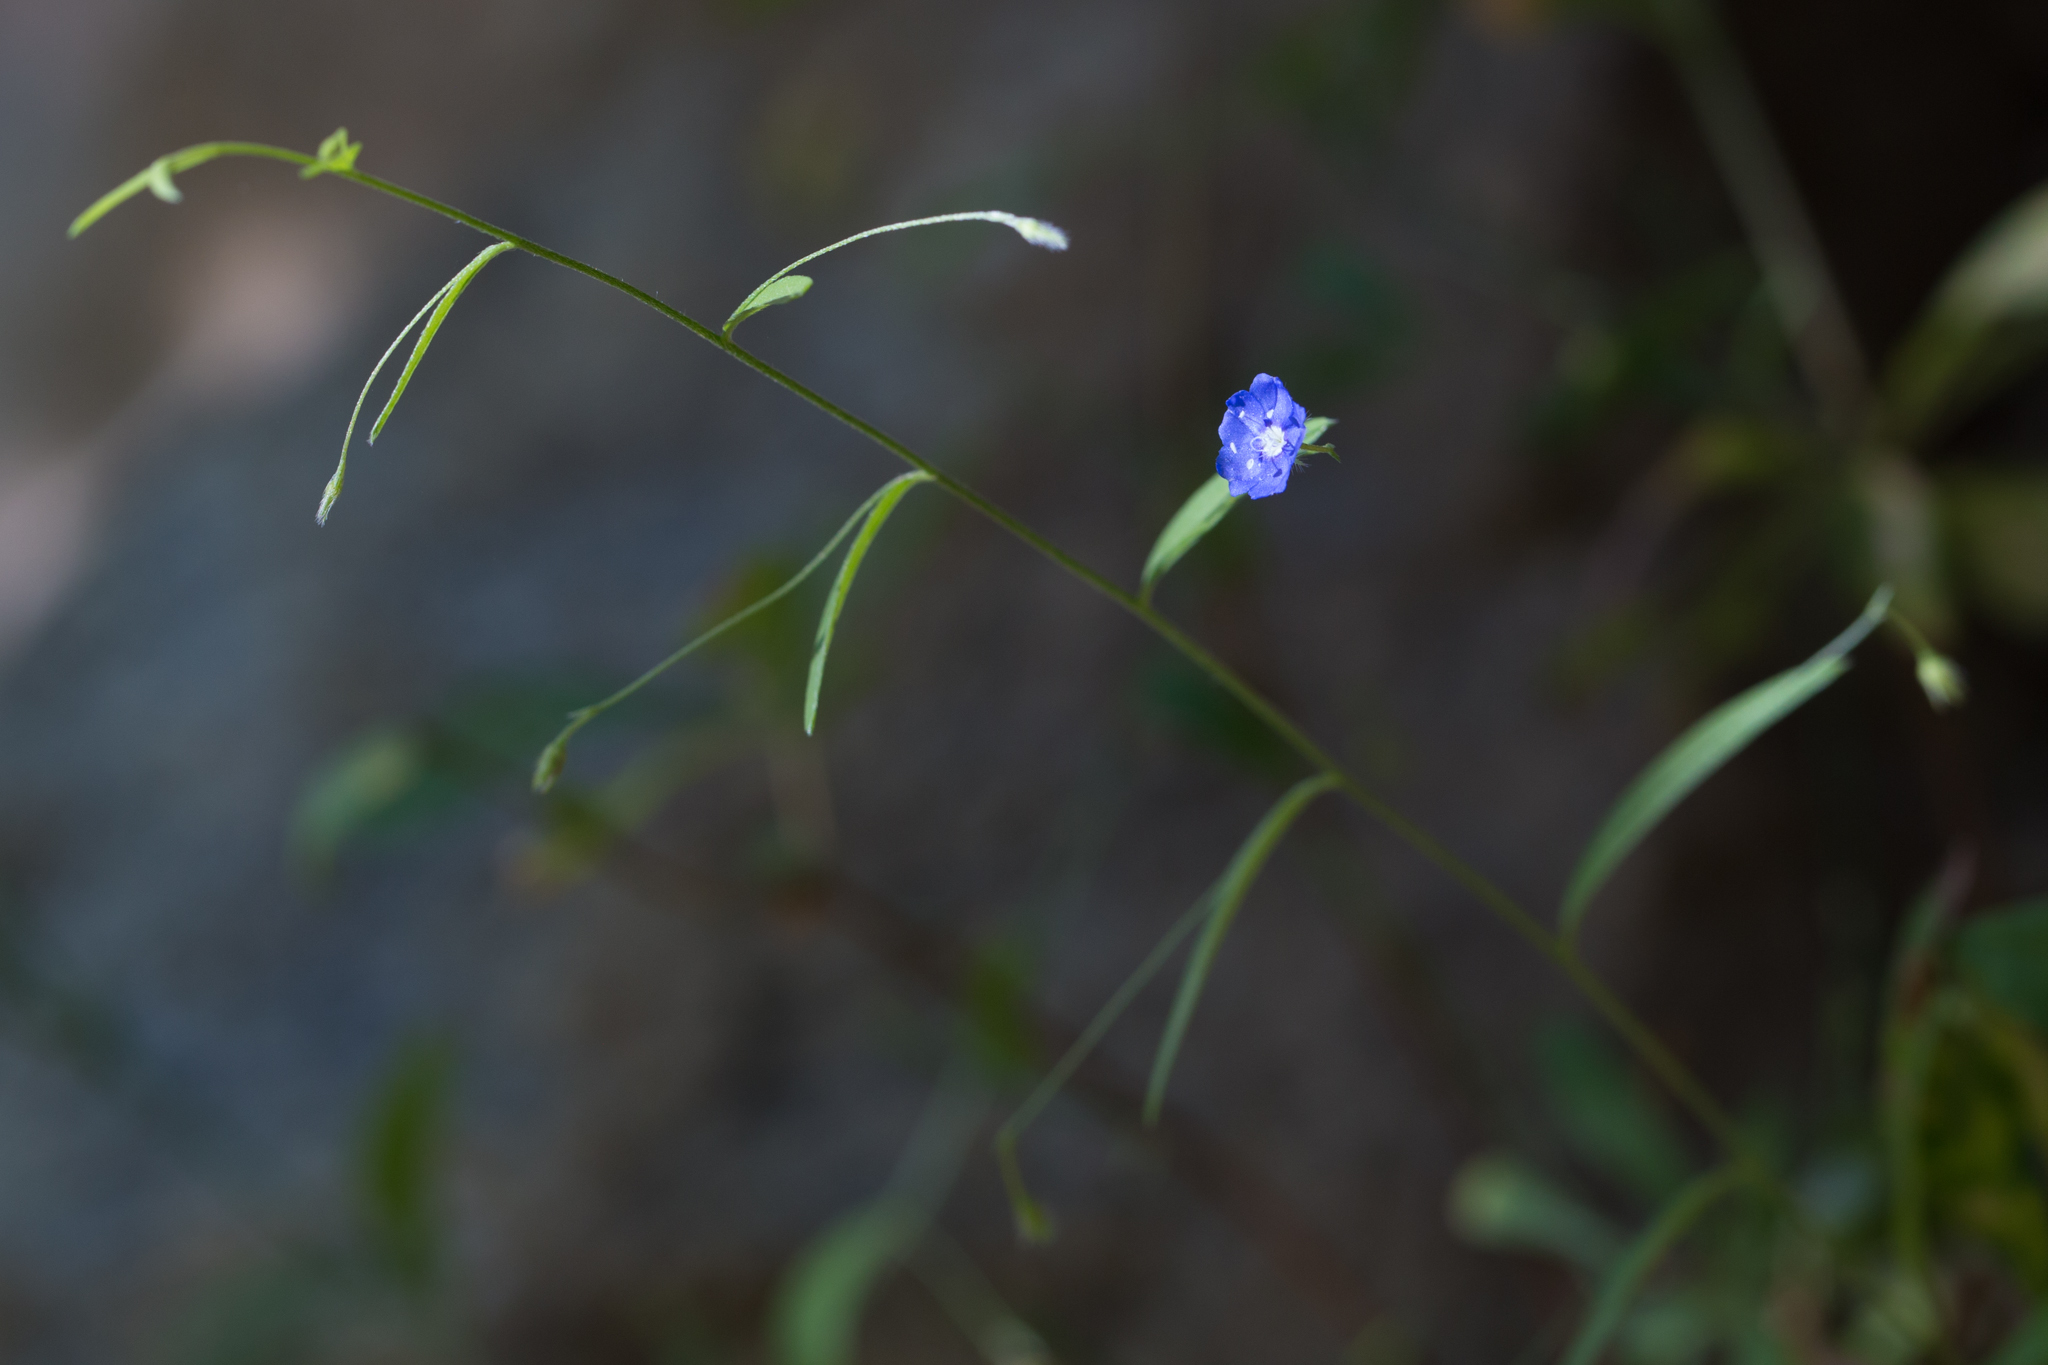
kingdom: Plantae
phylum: Tracheophyta
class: Magnoliopsida
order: Solanales
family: Convolvulaceae
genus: Evolvulus
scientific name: Evolvulus alsinoides
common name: Slender dwarf morning-glory
